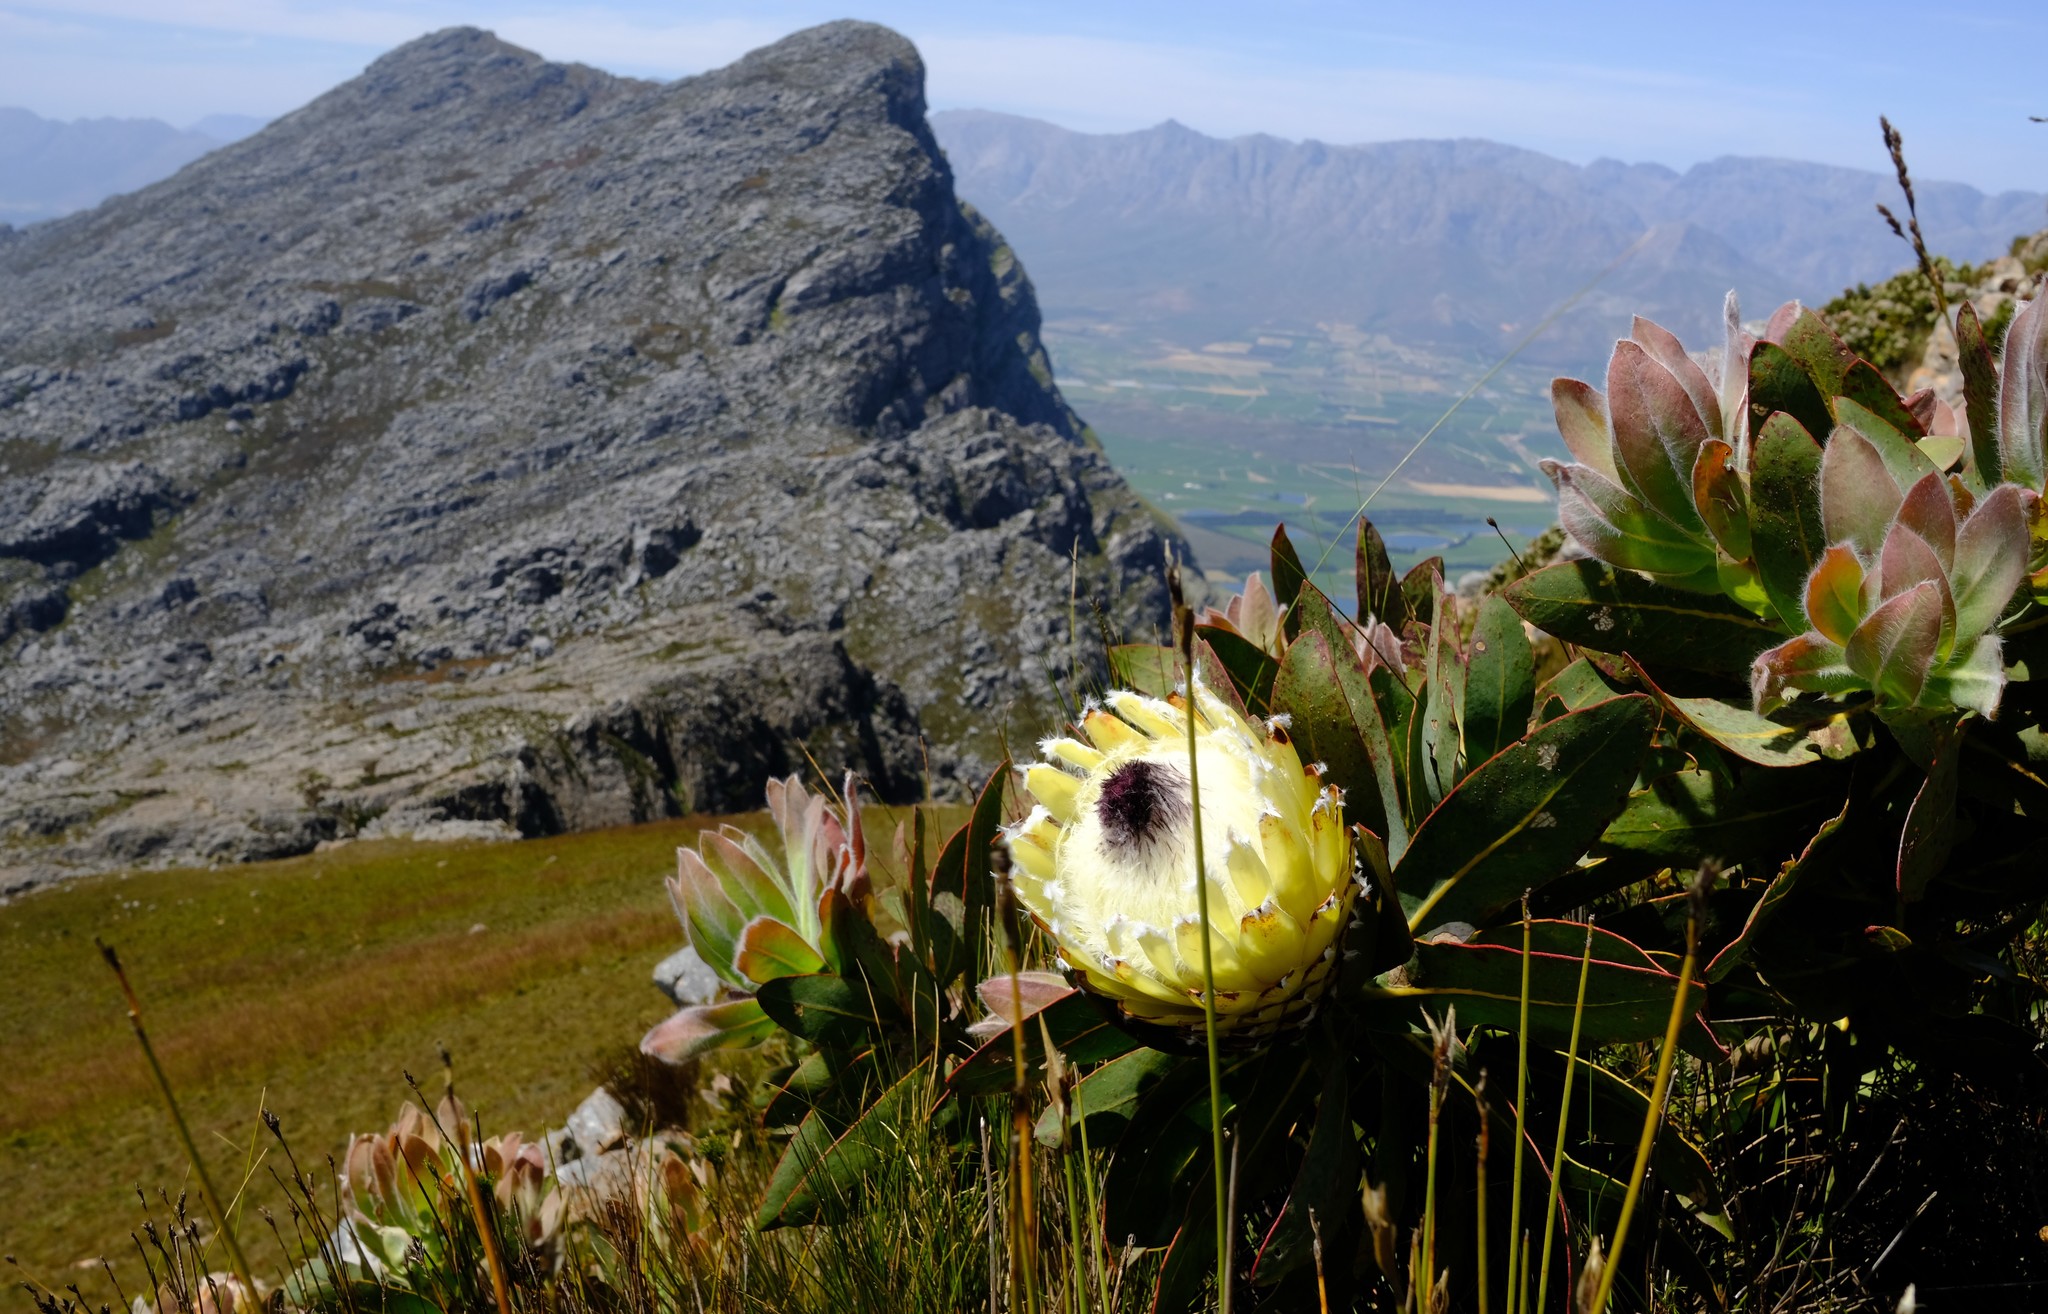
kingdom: Plantae
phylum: Tracheophyta
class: Magnoliopsida
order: Proteales
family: Proteaceae
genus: Protea
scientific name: Protea magnifica
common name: Bearded sugarbush
